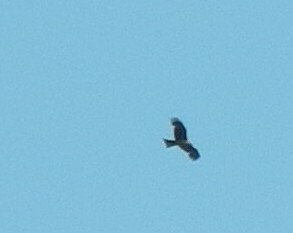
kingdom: Animalia
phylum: Chordata
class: Aves
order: Accipitriformes
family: Accipitridae
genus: Milvus
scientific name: Milvus migrans
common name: Black kite
